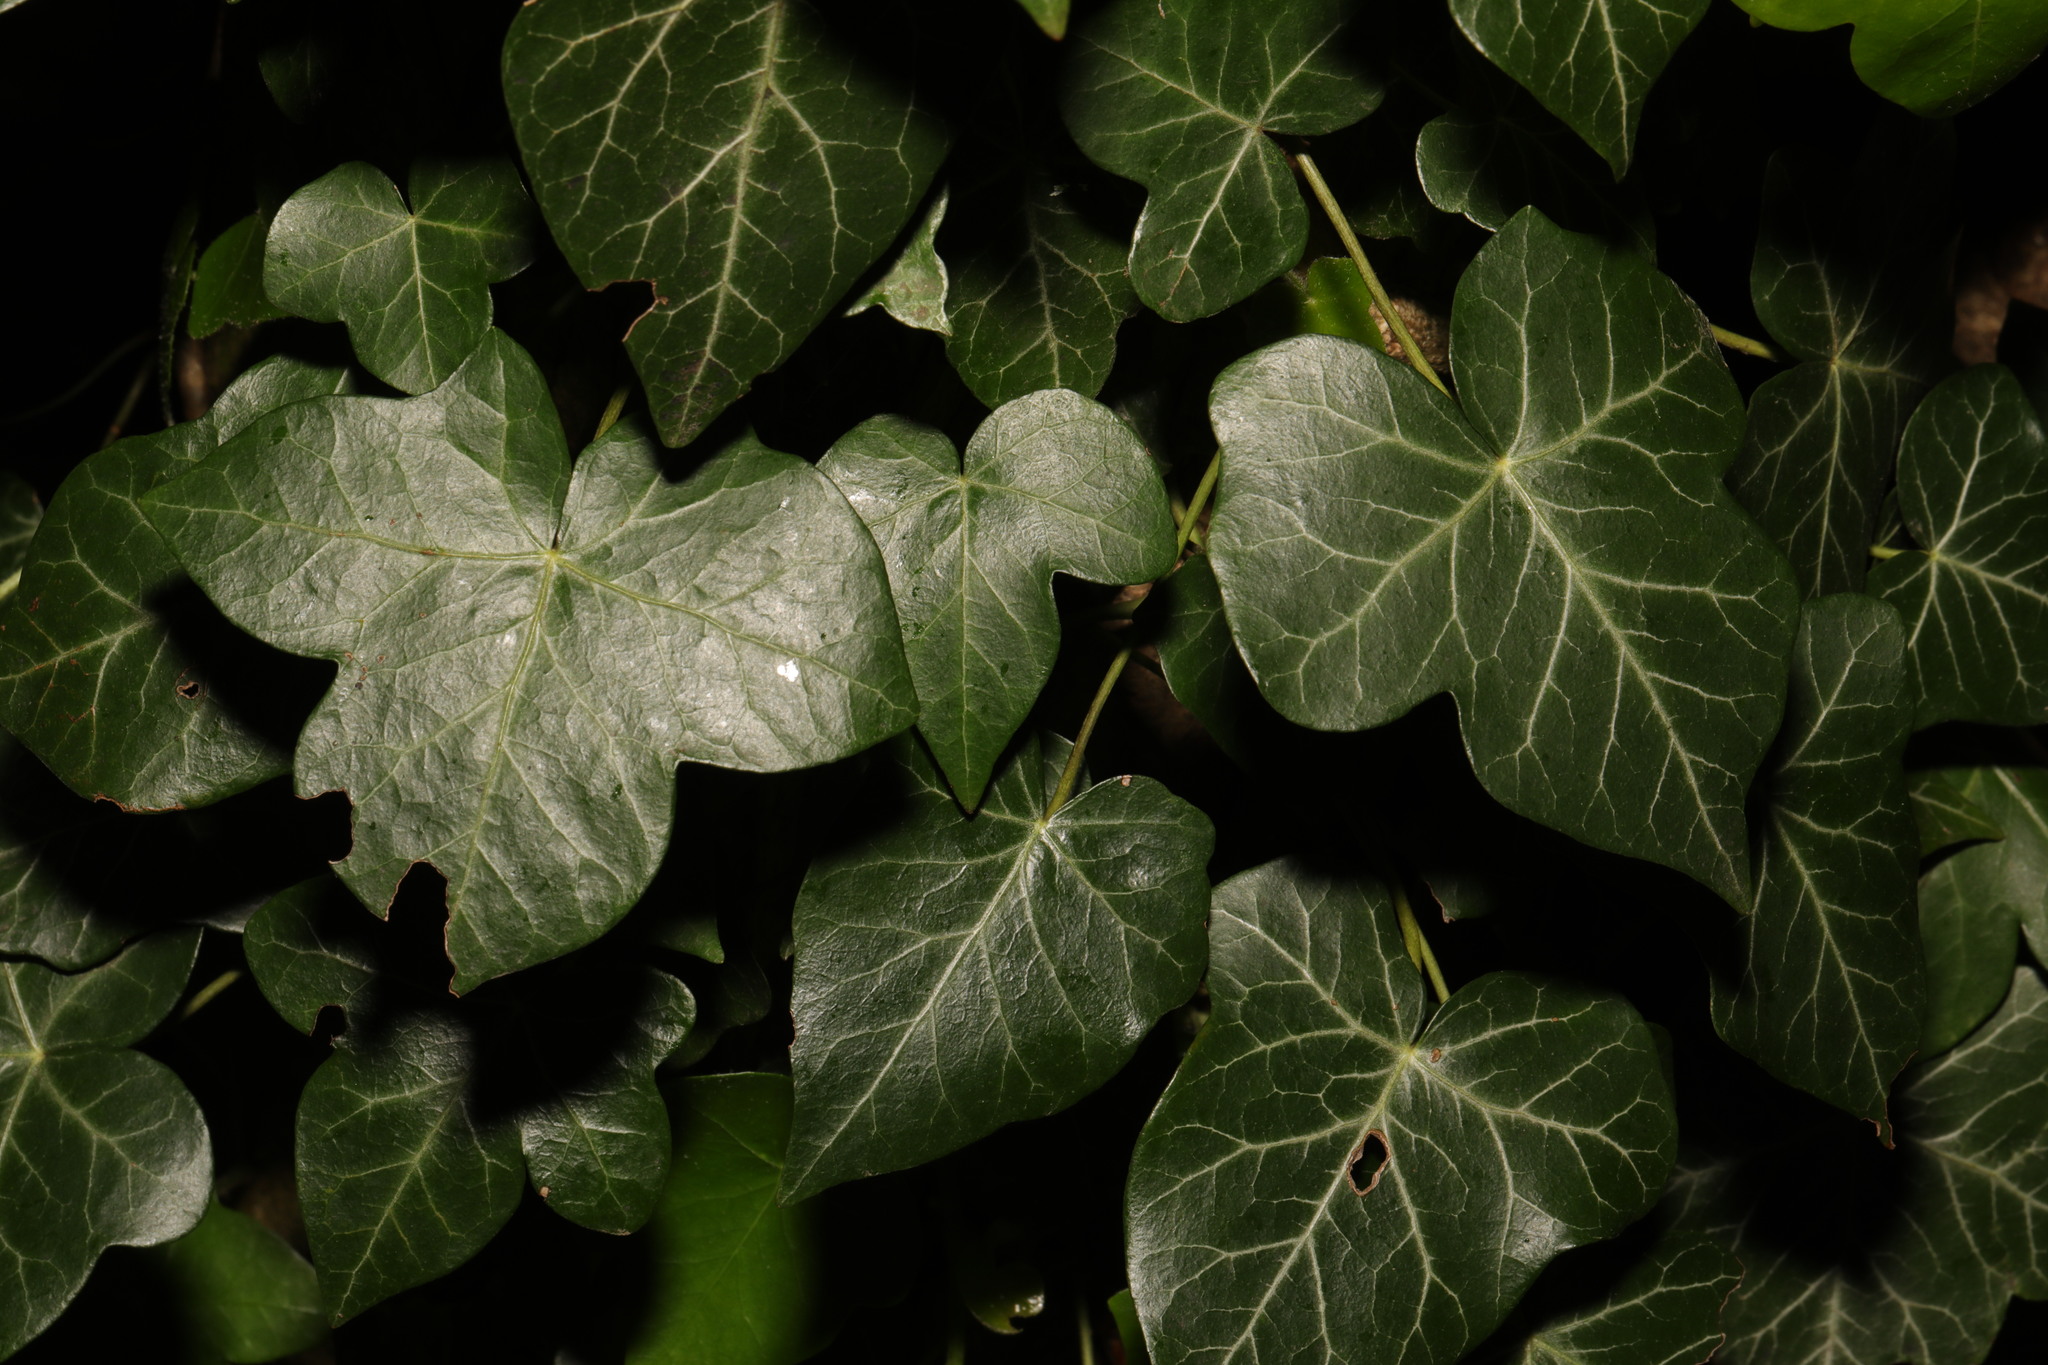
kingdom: Plantae
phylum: Tracheophyta
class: Magnoliopsida
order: Apiales
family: Araliaceae
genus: Hedera
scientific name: Hedera helix
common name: Ivy
